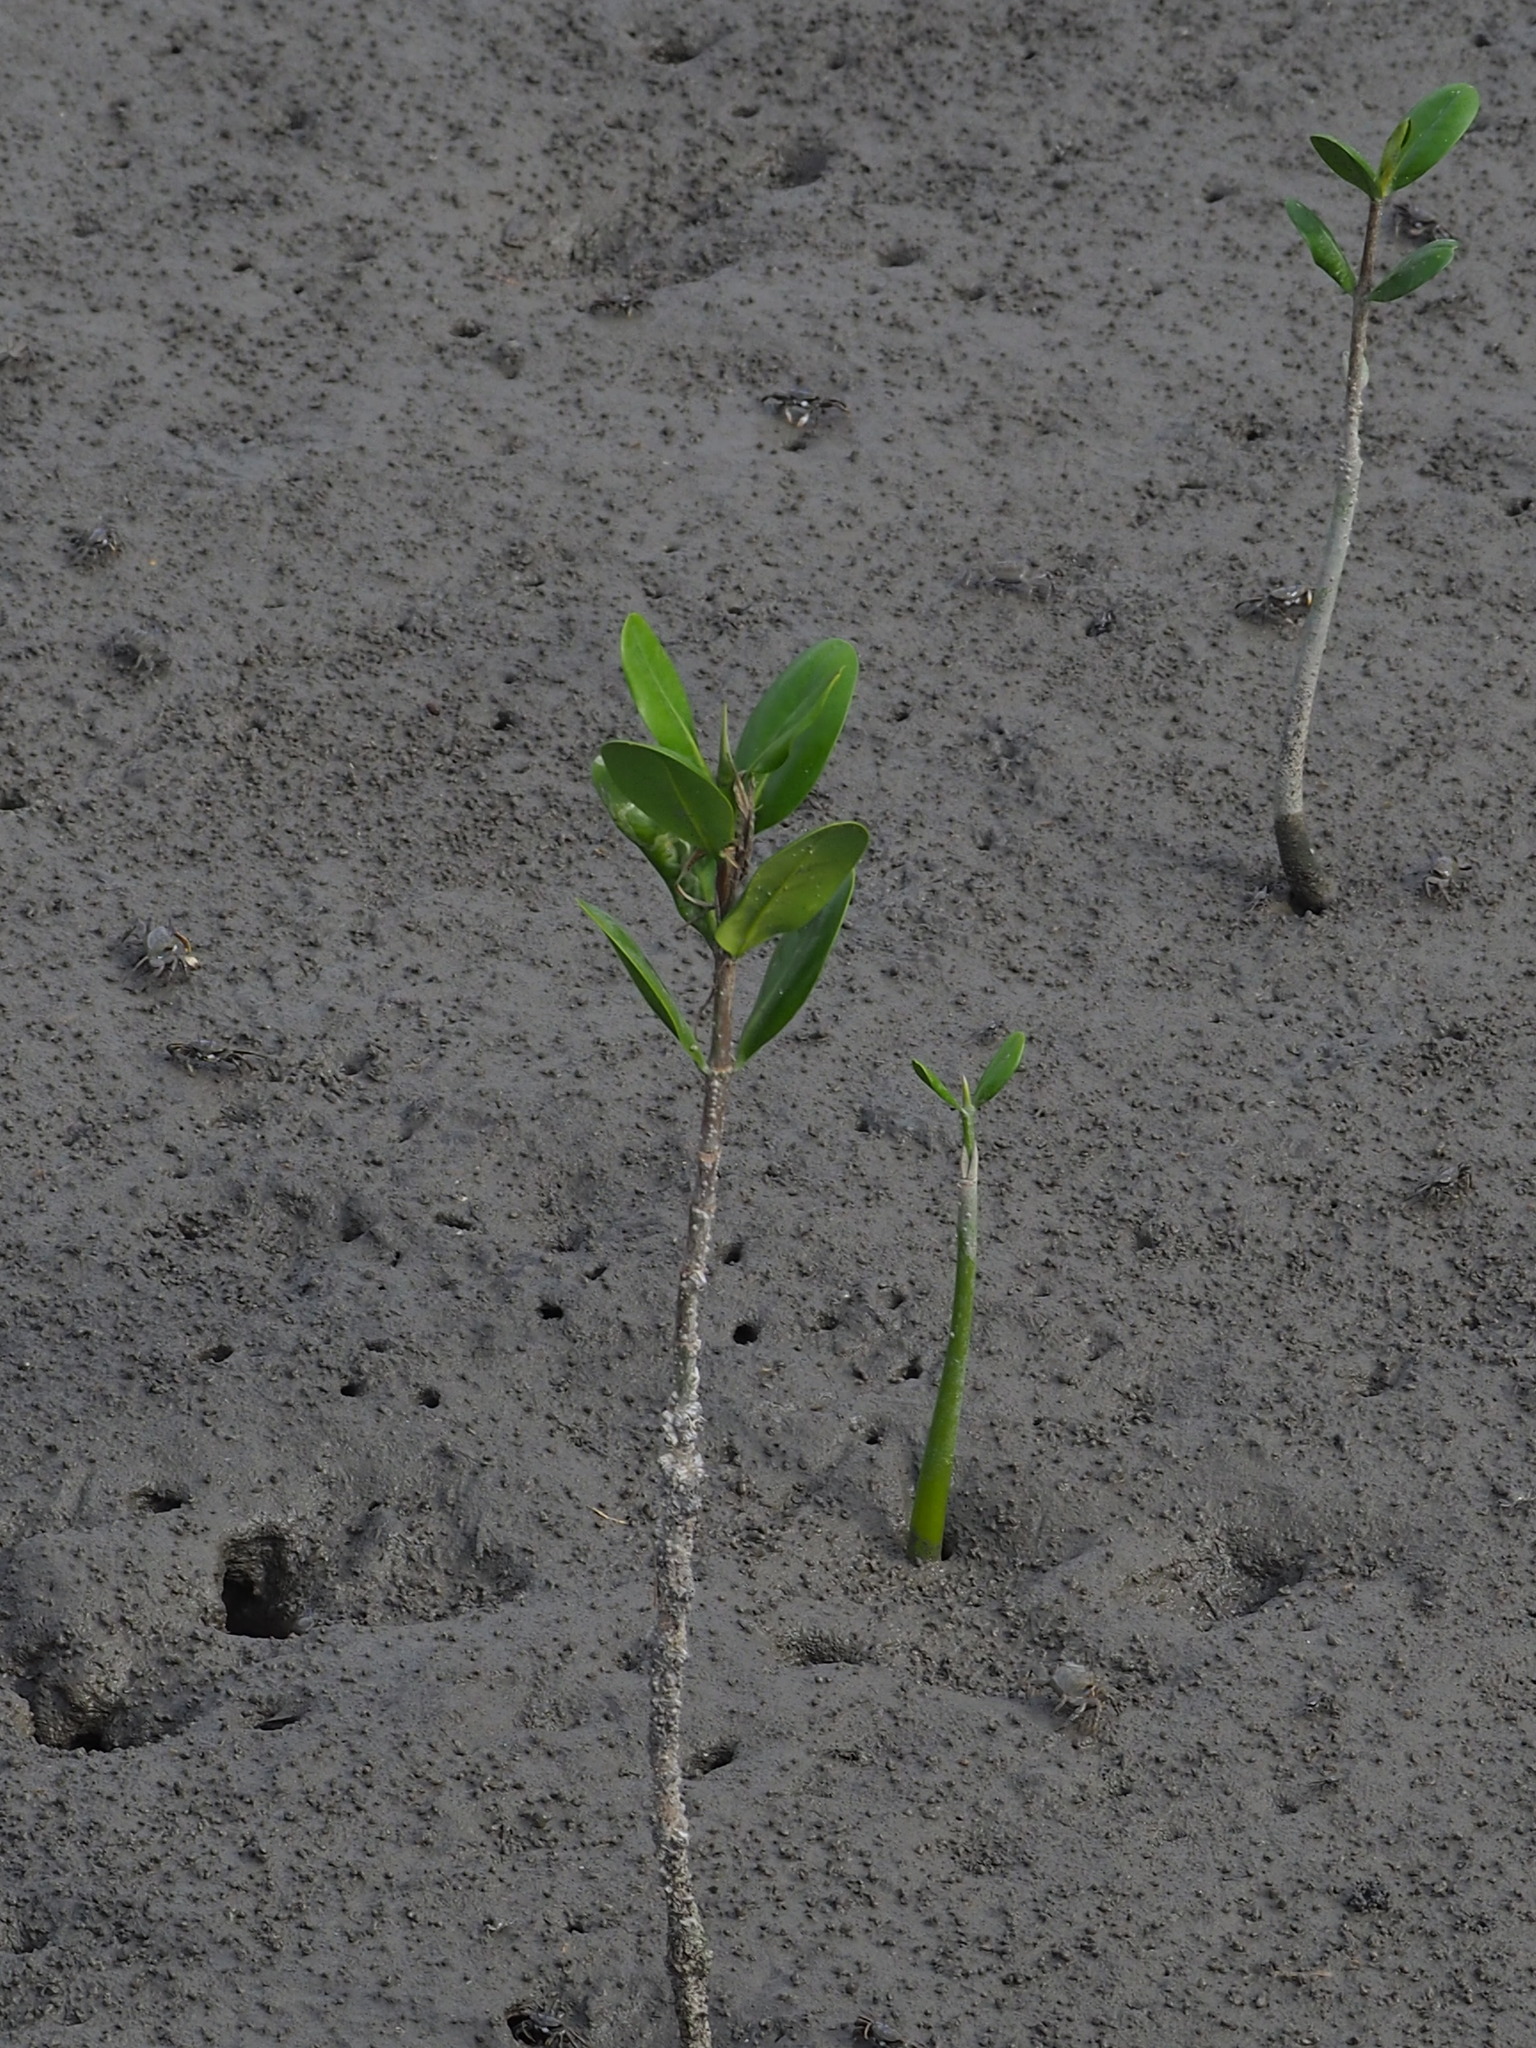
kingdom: Plantae
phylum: Tracheophyta
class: Magnoliopsida
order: Malpighiales
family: Rhizophoraceae
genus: Kandelia
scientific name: Kandelia obovata
